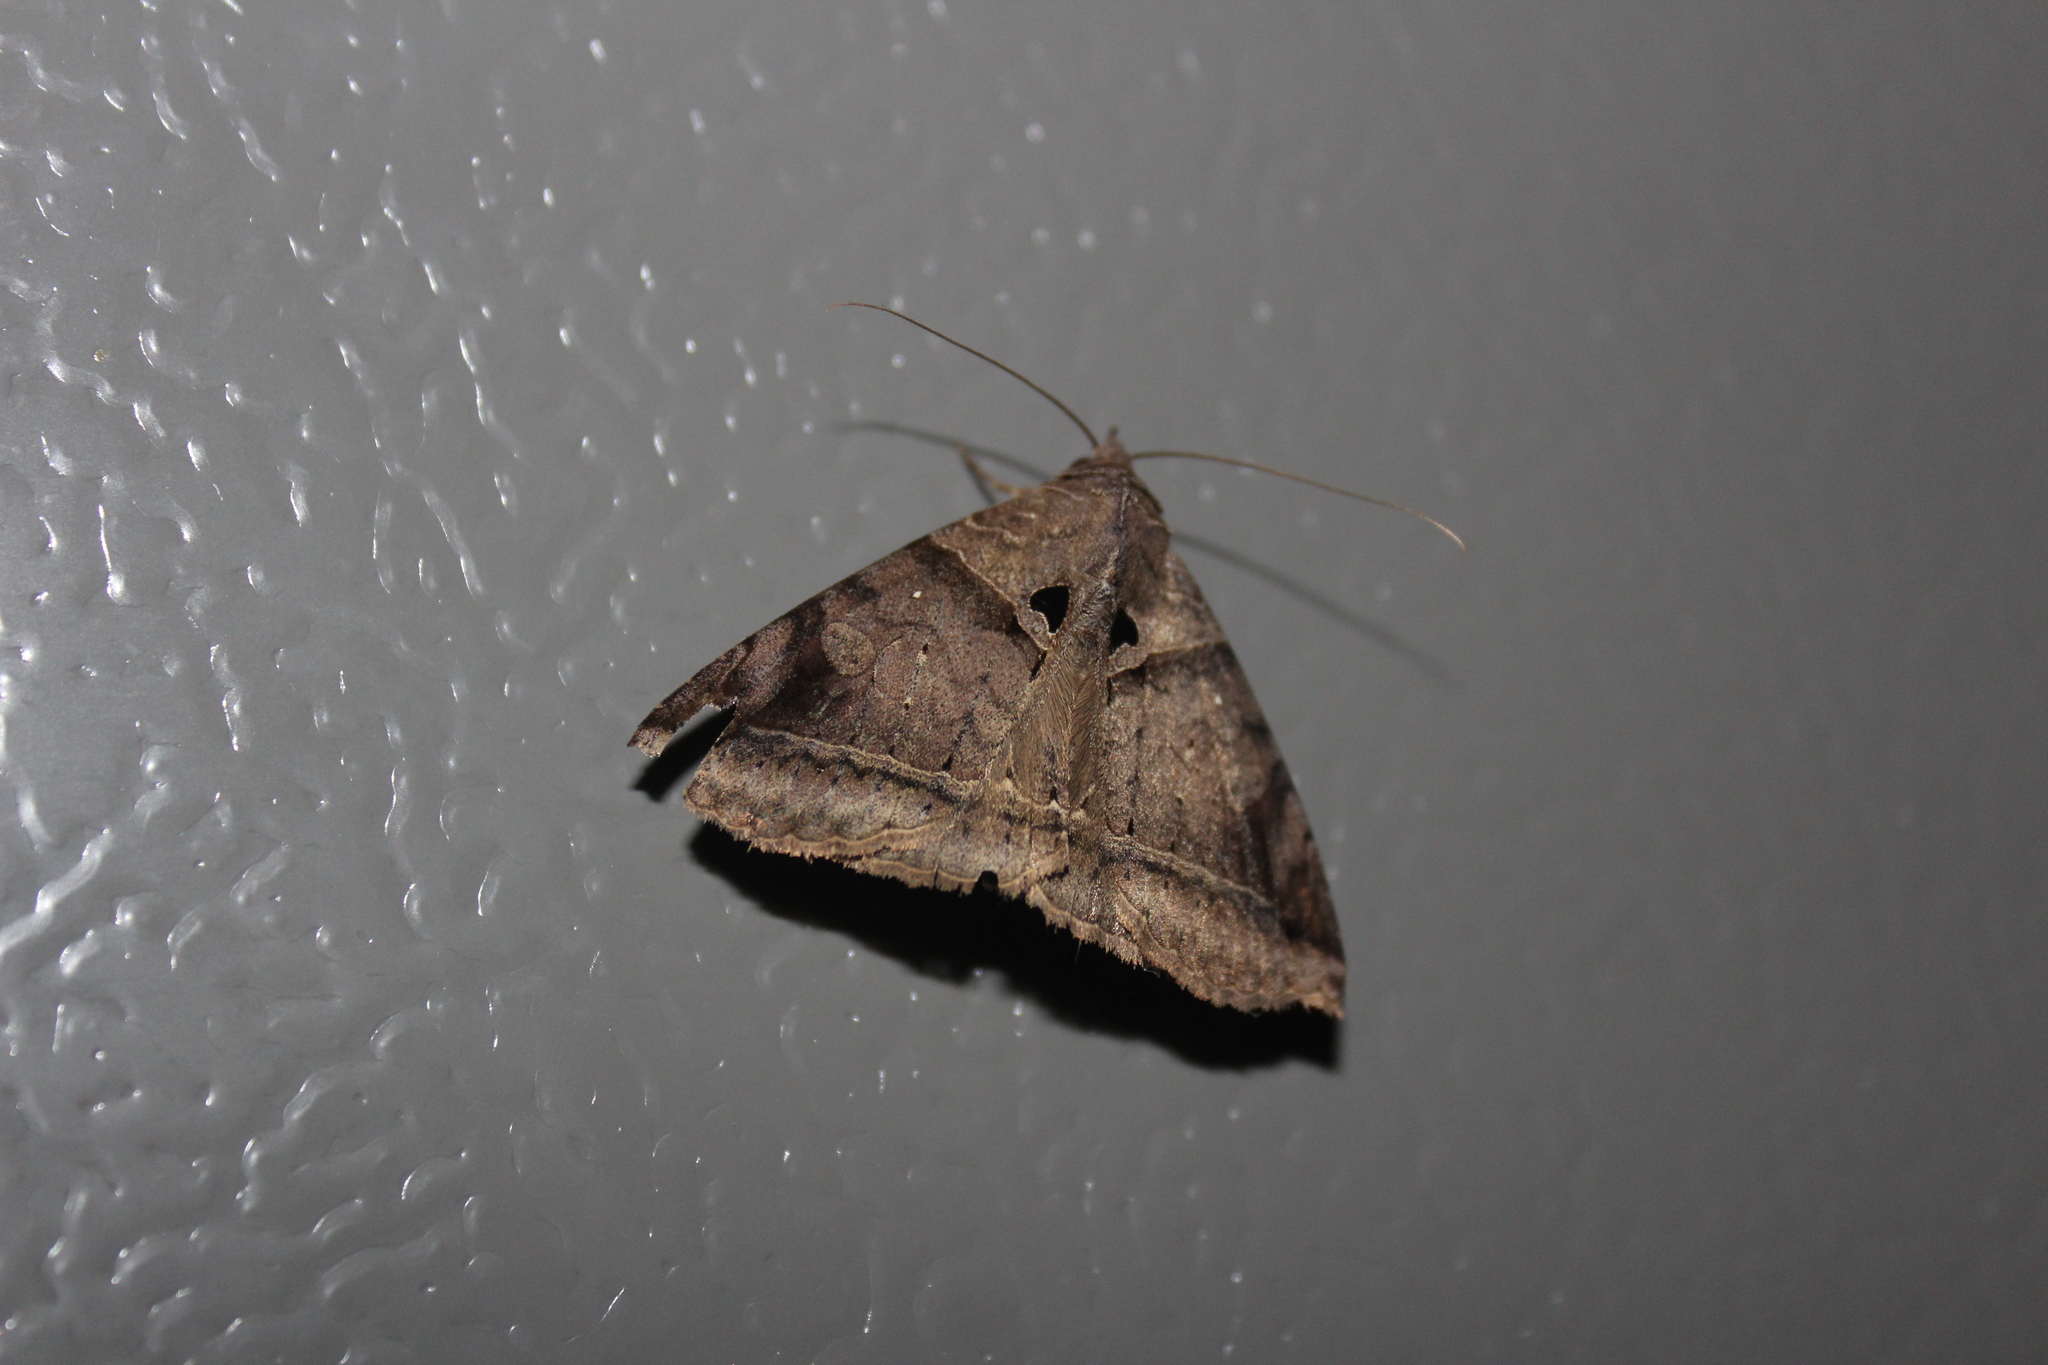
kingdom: Animalia
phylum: Arthropoda
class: Insecta
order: Lepidoptera
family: Erebidae
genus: Celiptera
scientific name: Celiptera levina
